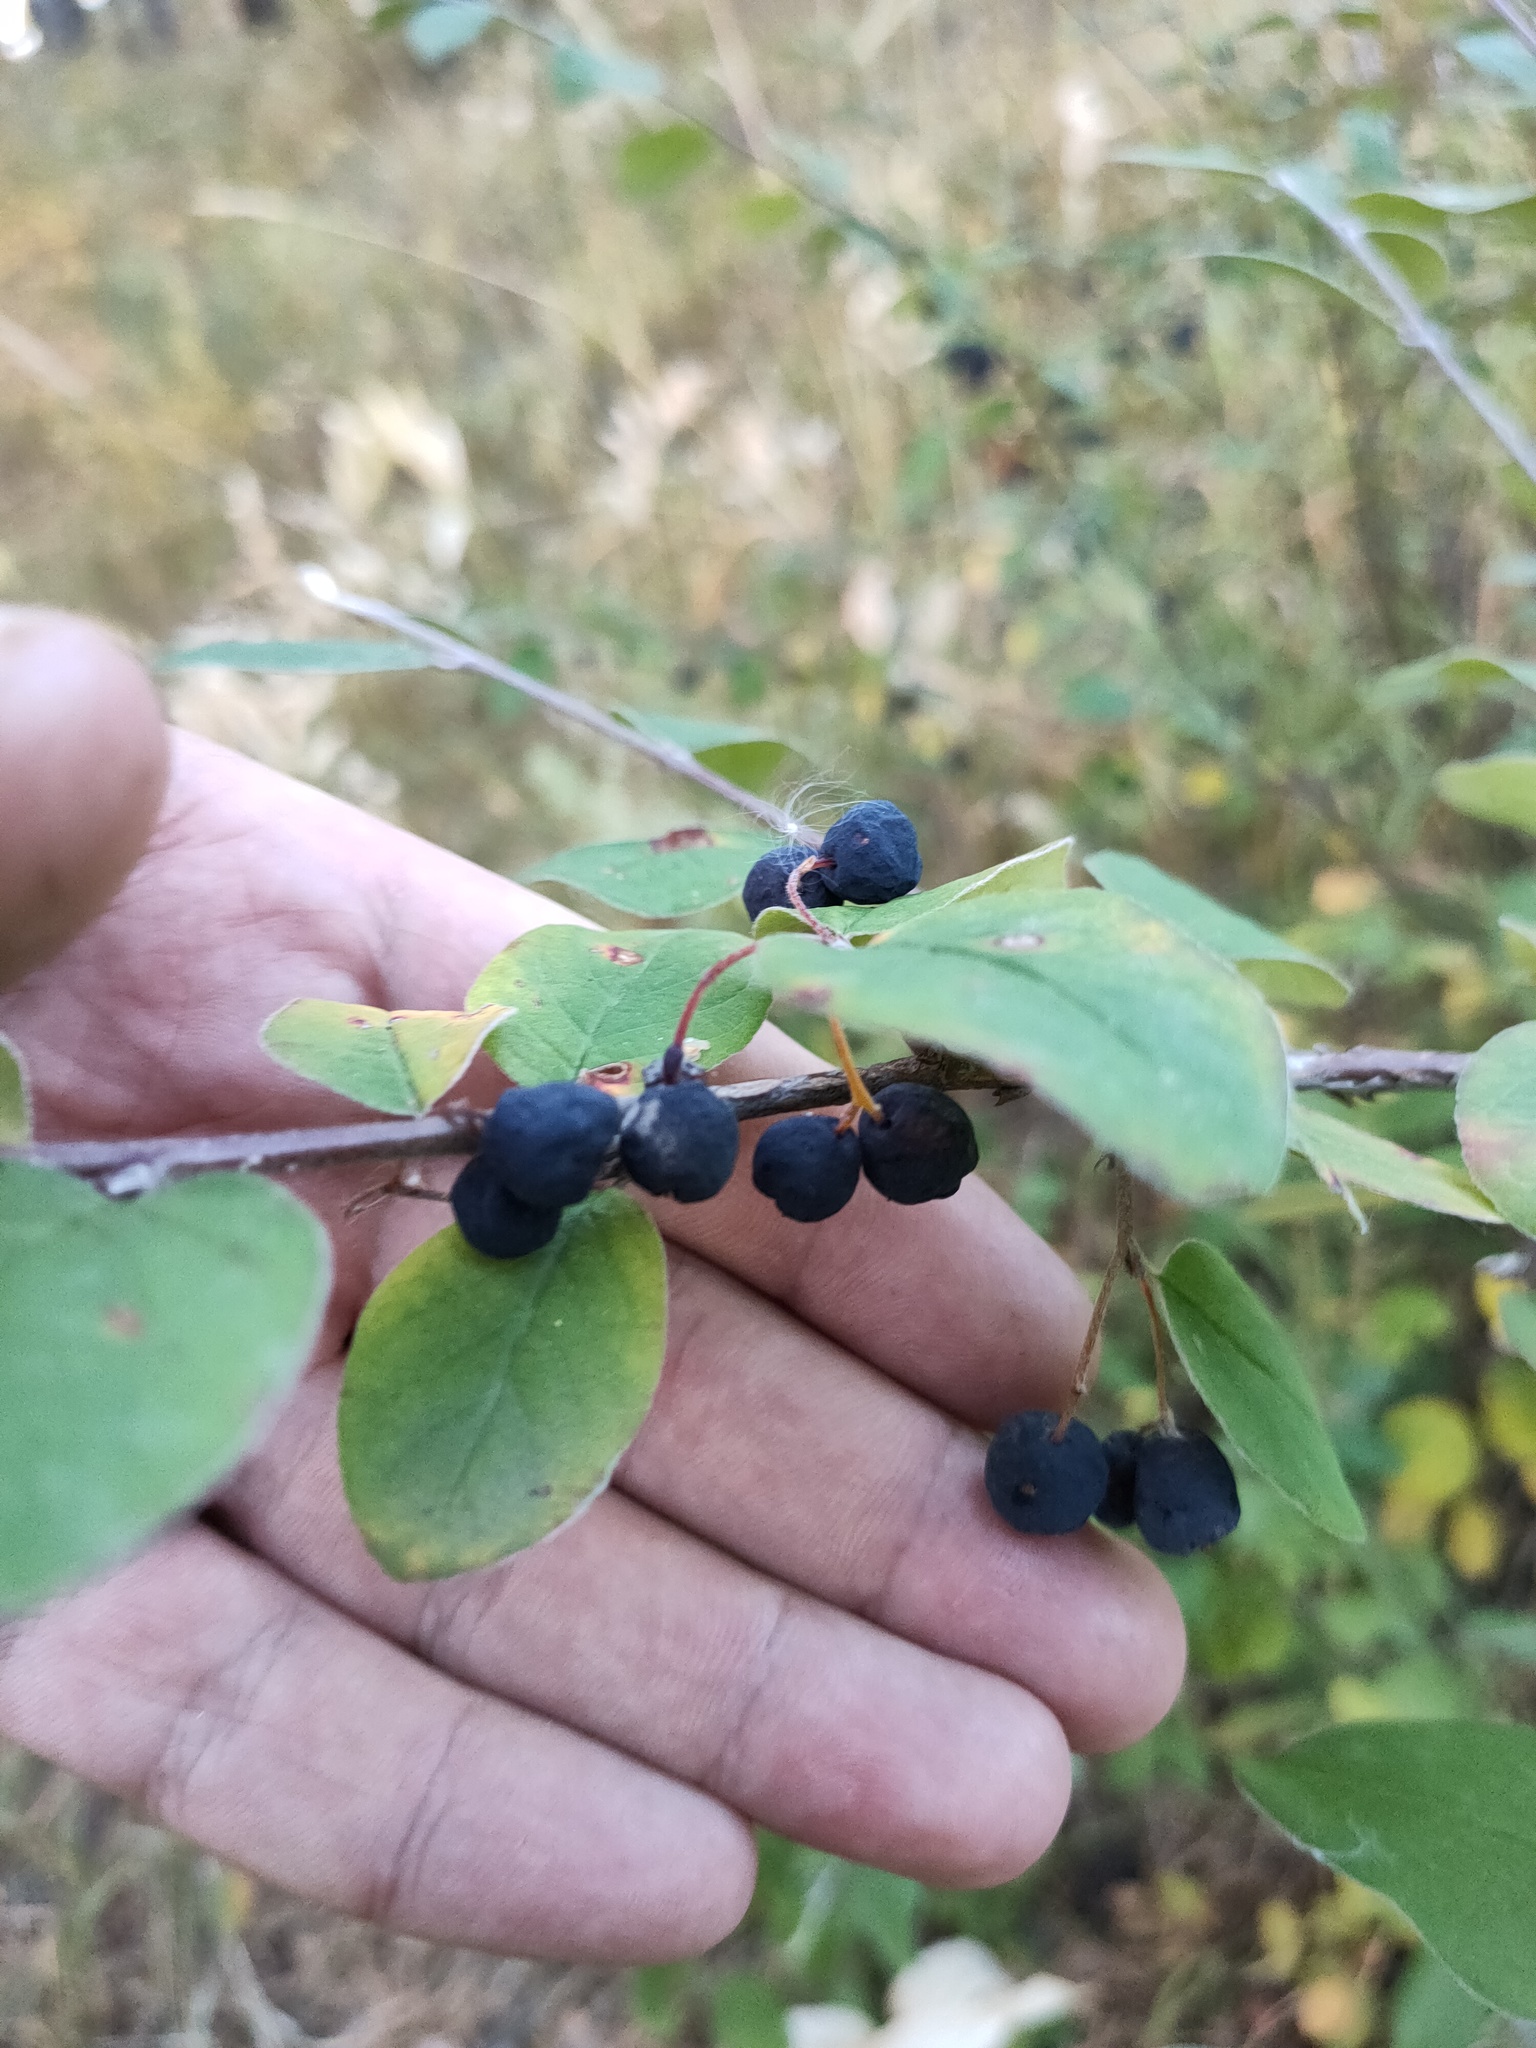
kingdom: Plantae
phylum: Tracheophyta
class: Magnoliopsida
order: Rosales
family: Rosaceae
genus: Cotoneaster
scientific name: Cotoneaster melanocarpus
